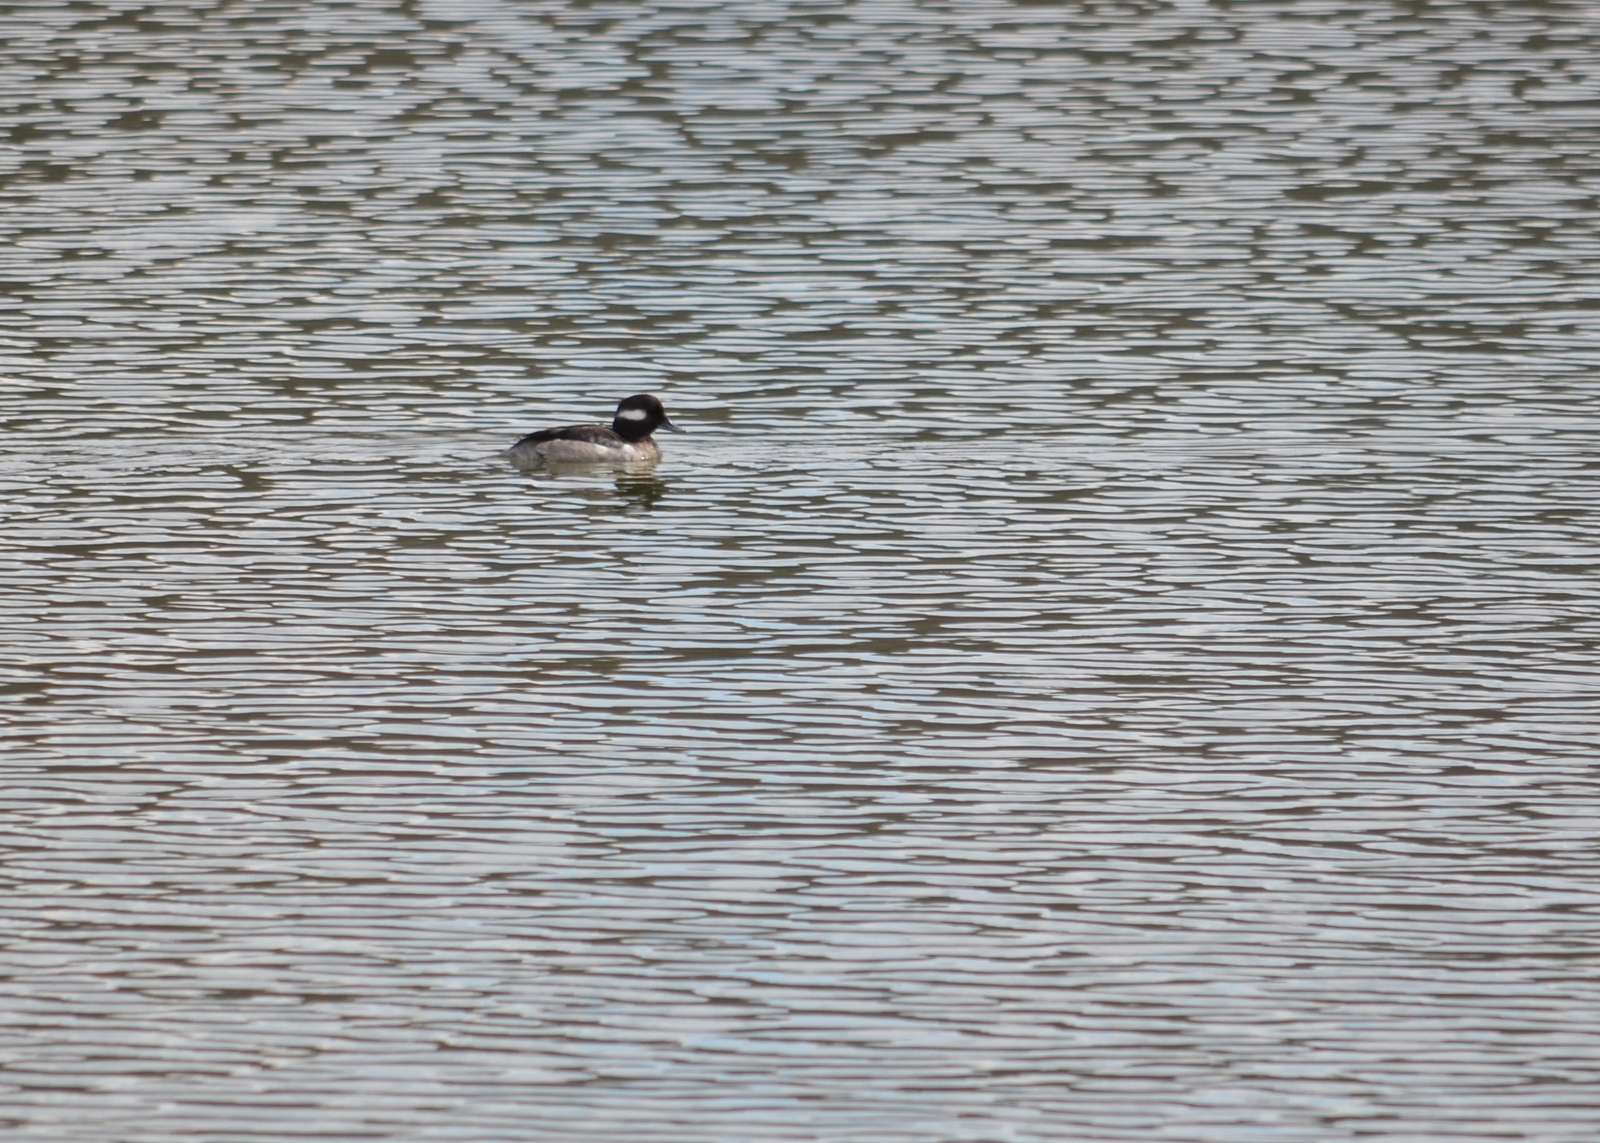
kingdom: Animalia
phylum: Chordata
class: Aves
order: Anseriformes
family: Anatidae
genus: Bucephala
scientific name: Bucephala albeola
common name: Bufflehead
